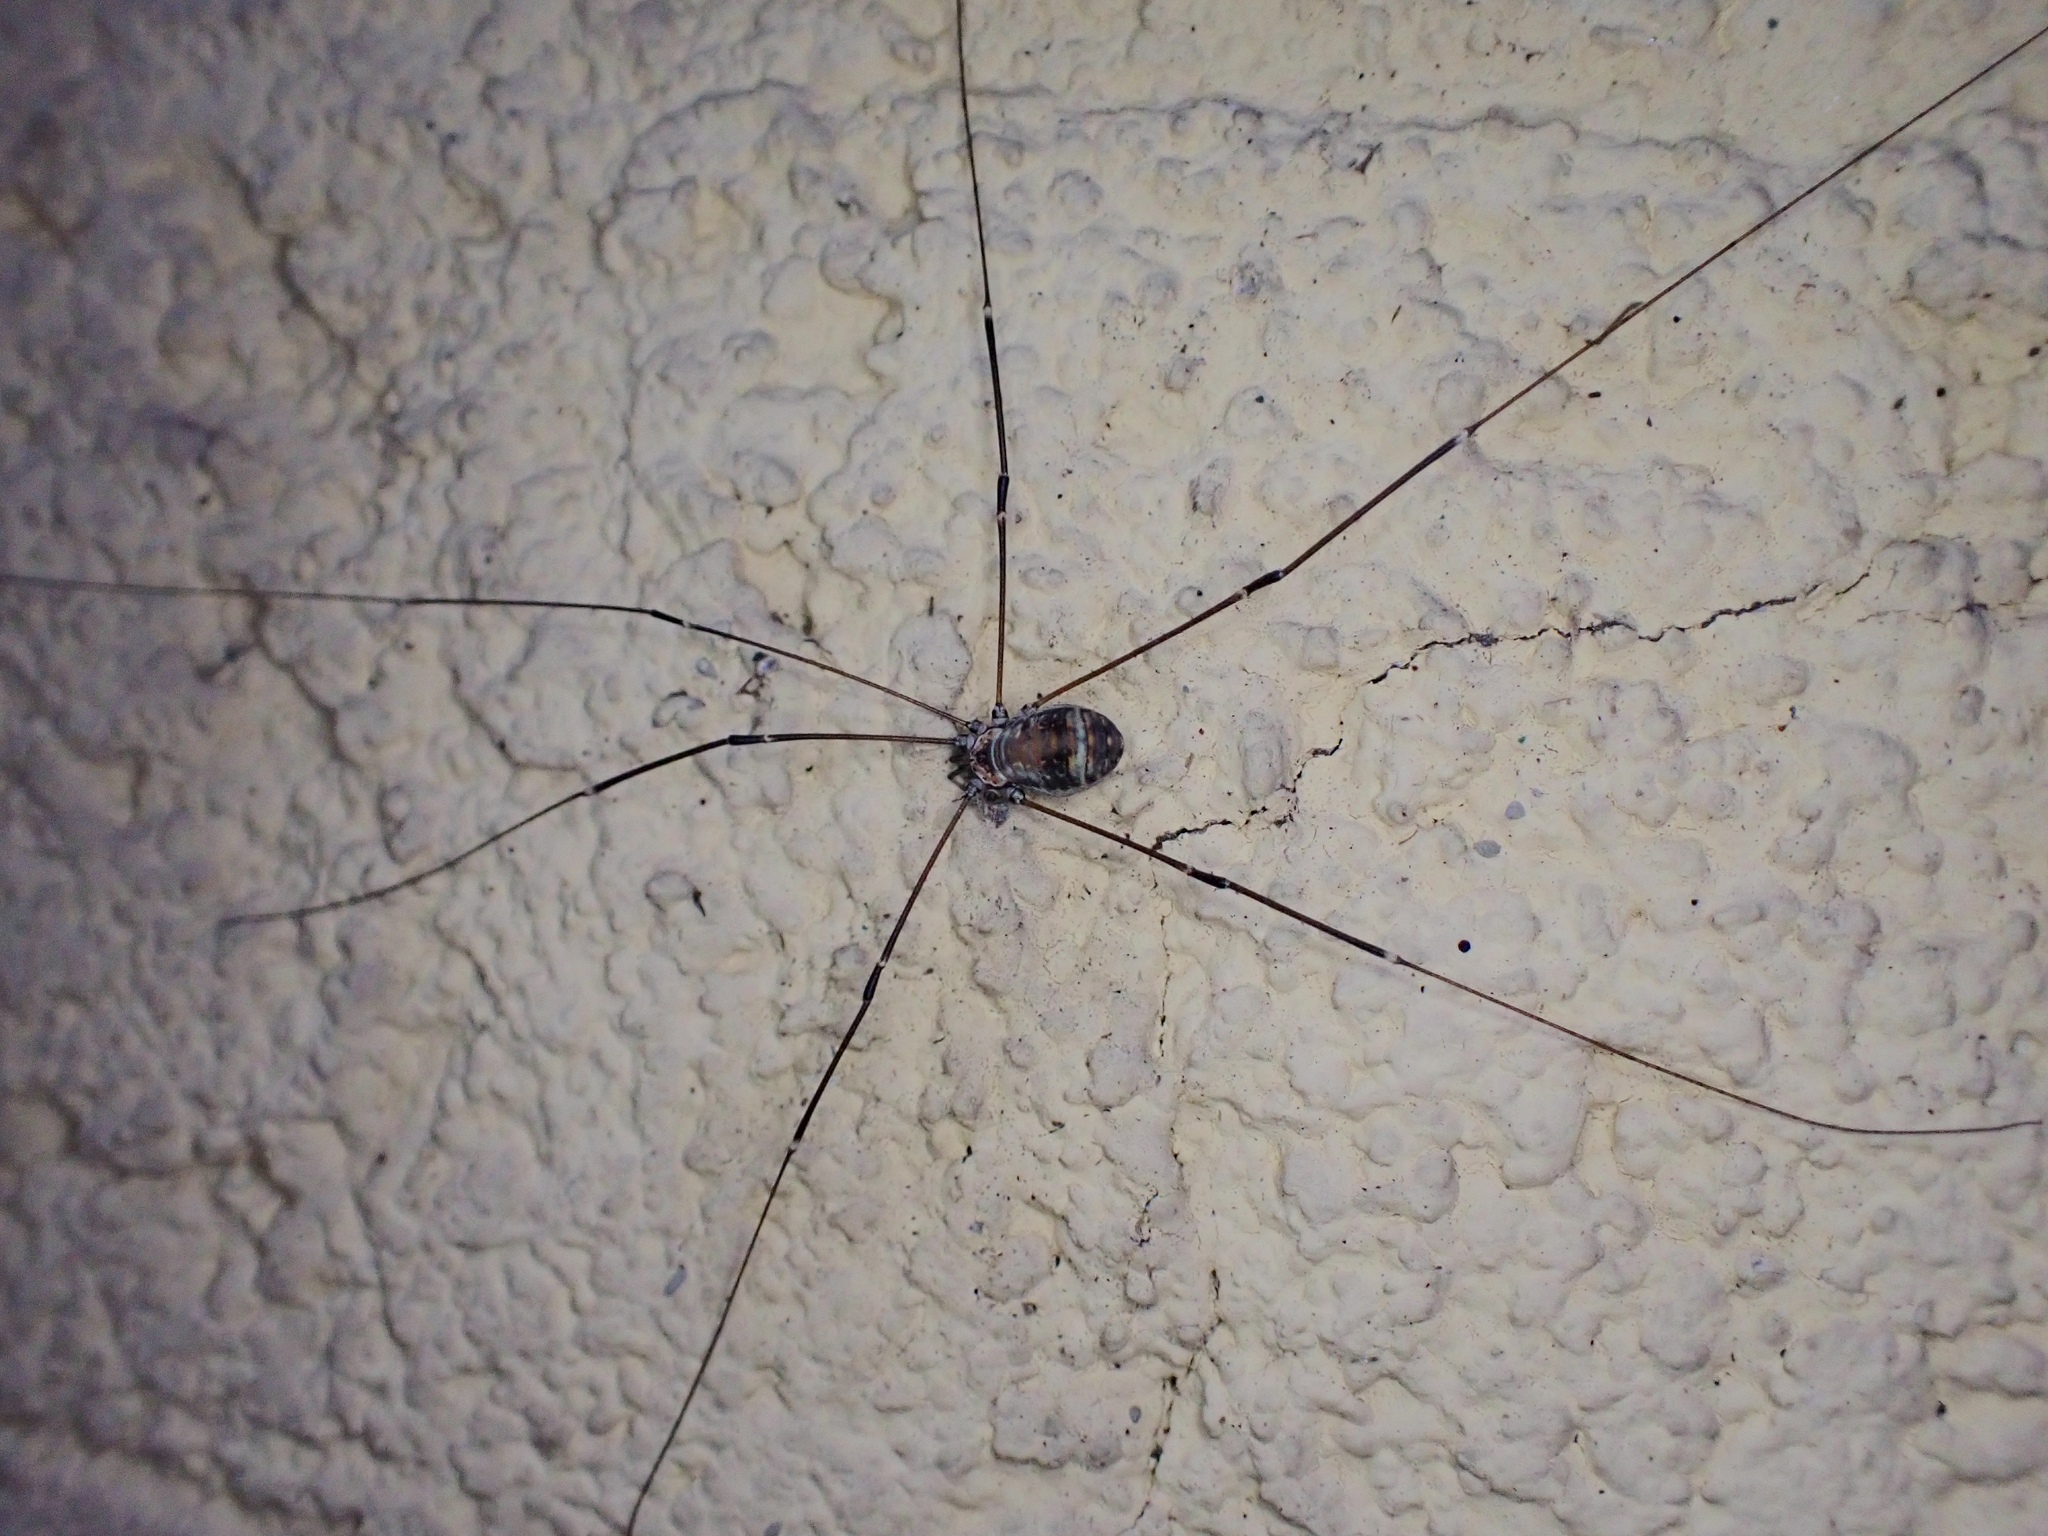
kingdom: Animalia
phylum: Arthropoda
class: Arachnida
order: Opiliones
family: Sclerosomatidae
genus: Leiobunum
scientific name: Leiobunum limbatum
